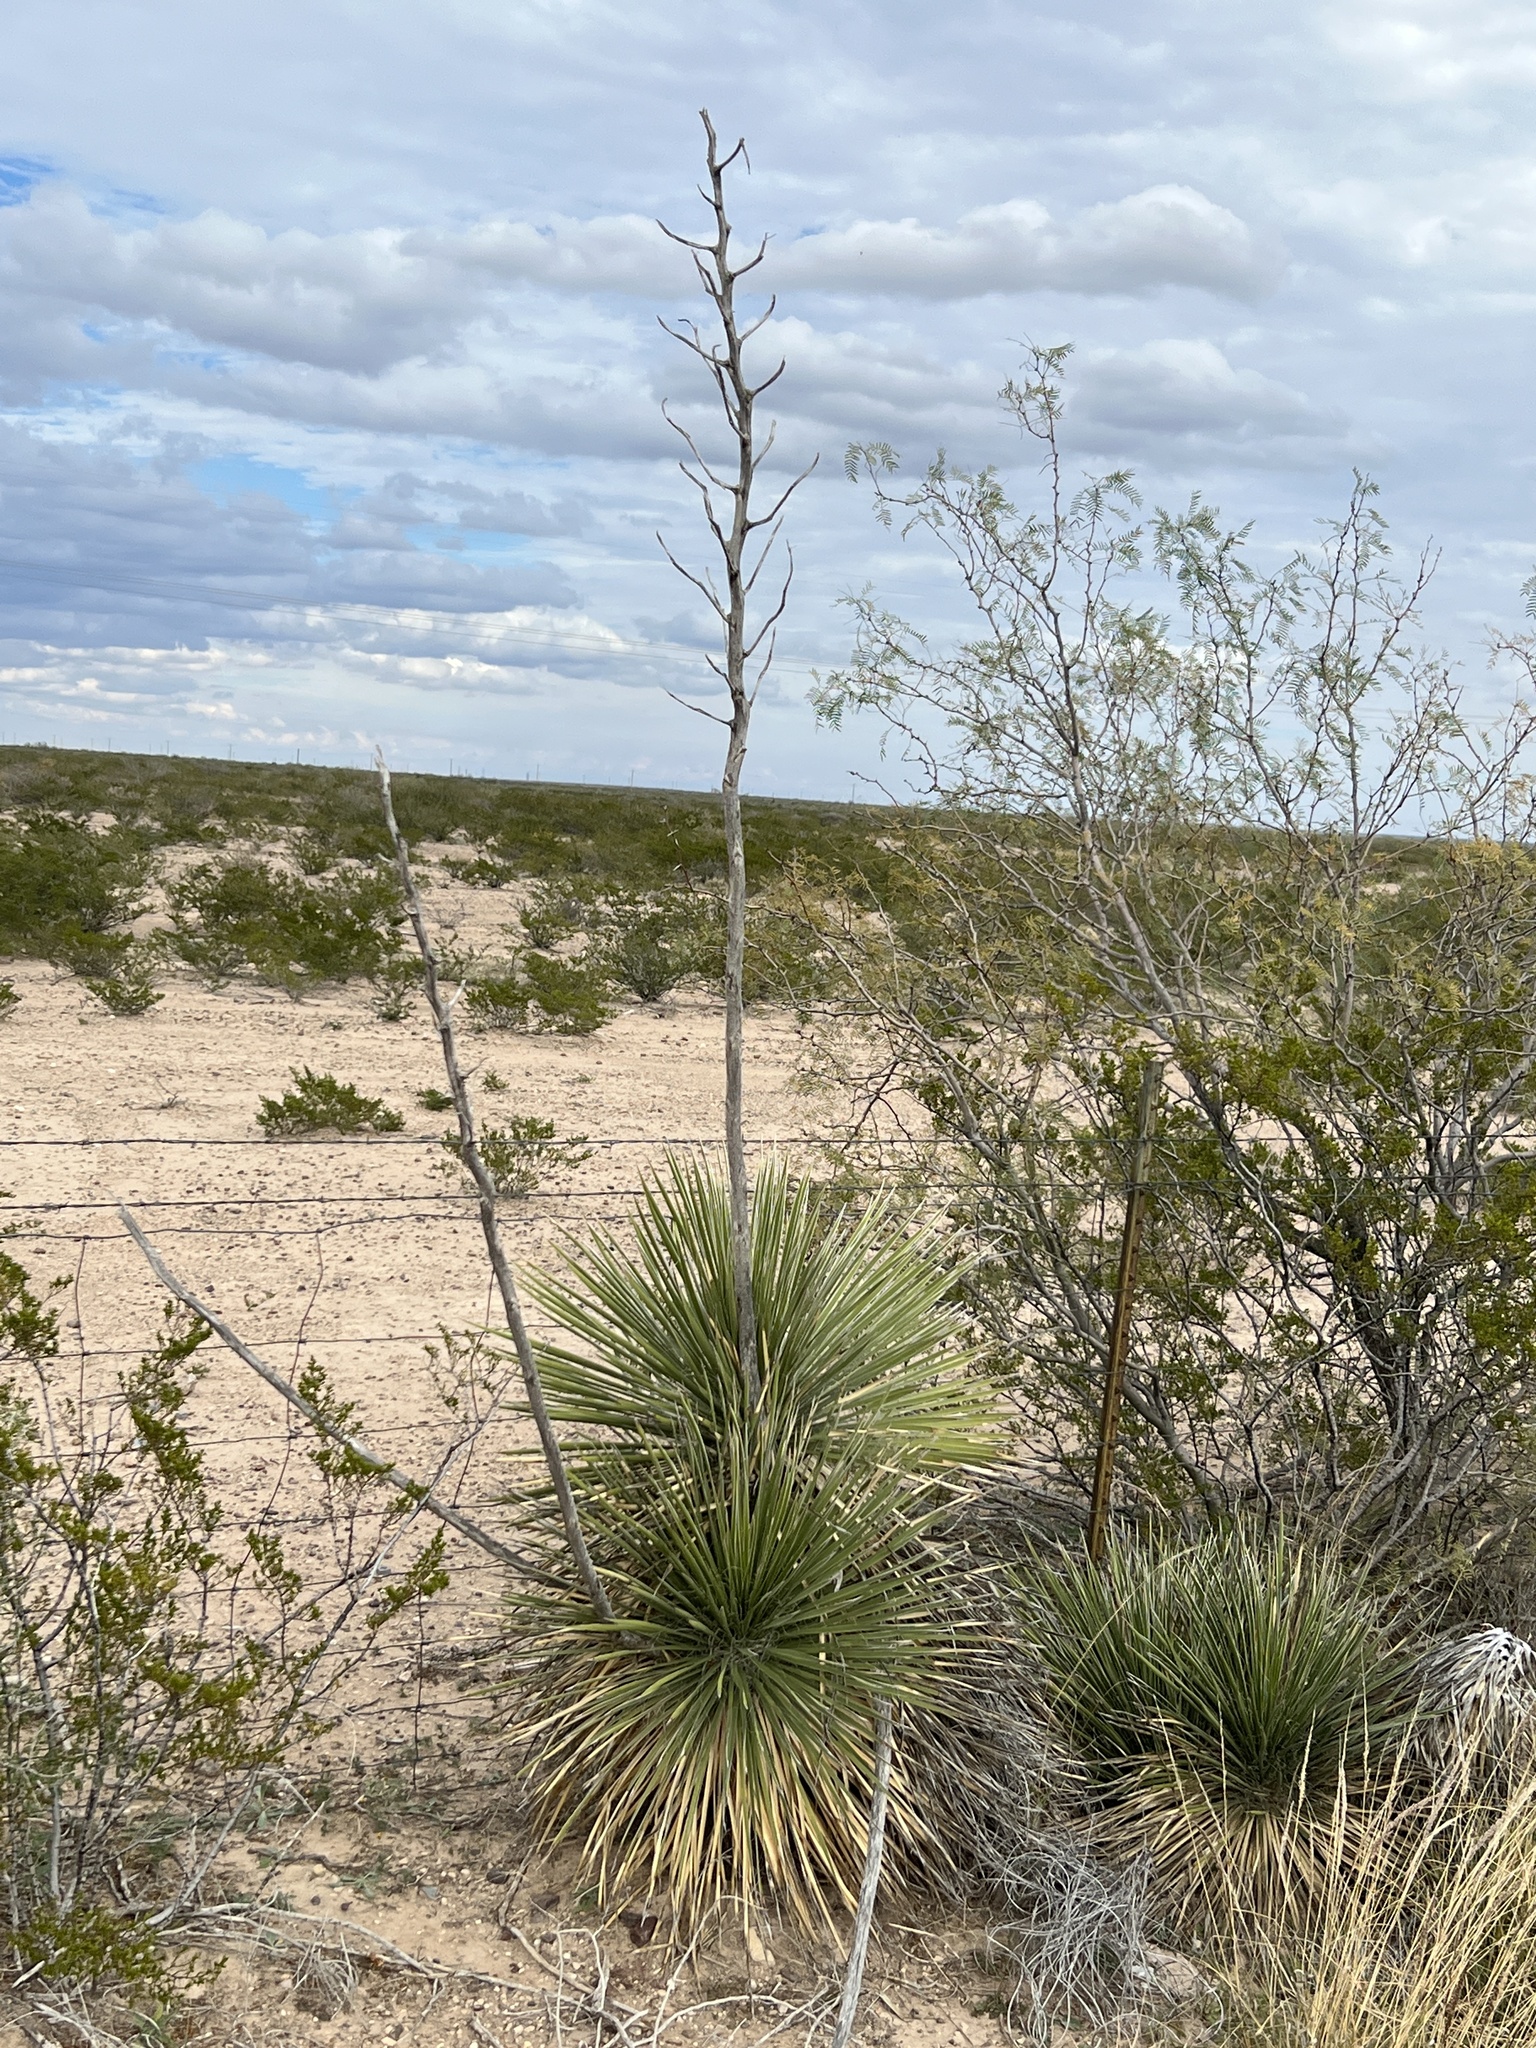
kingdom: Plantae
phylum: Tracheophyta
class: Liliopsida
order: Asparagales
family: Asparagaceae
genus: Yucca
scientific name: Yucca elata
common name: Palmella
